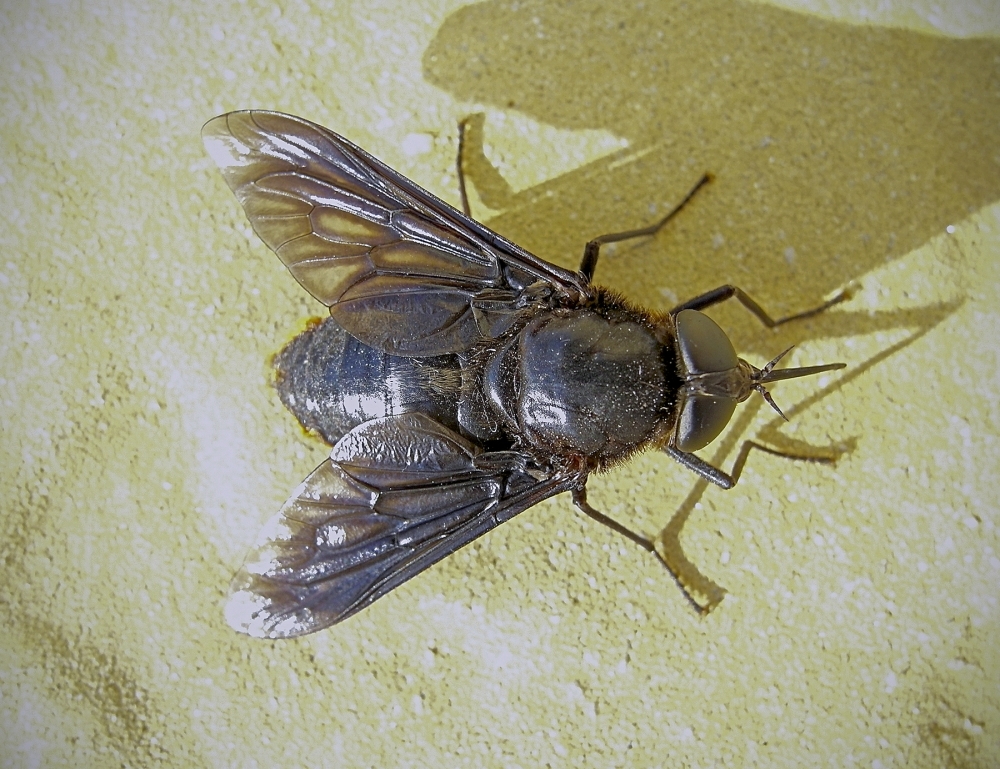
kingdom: Animalia
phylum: Arthropoda
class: Insecta
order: Diptera
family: Tabanidae
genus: Pangonius
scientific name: Pangonius funebris
